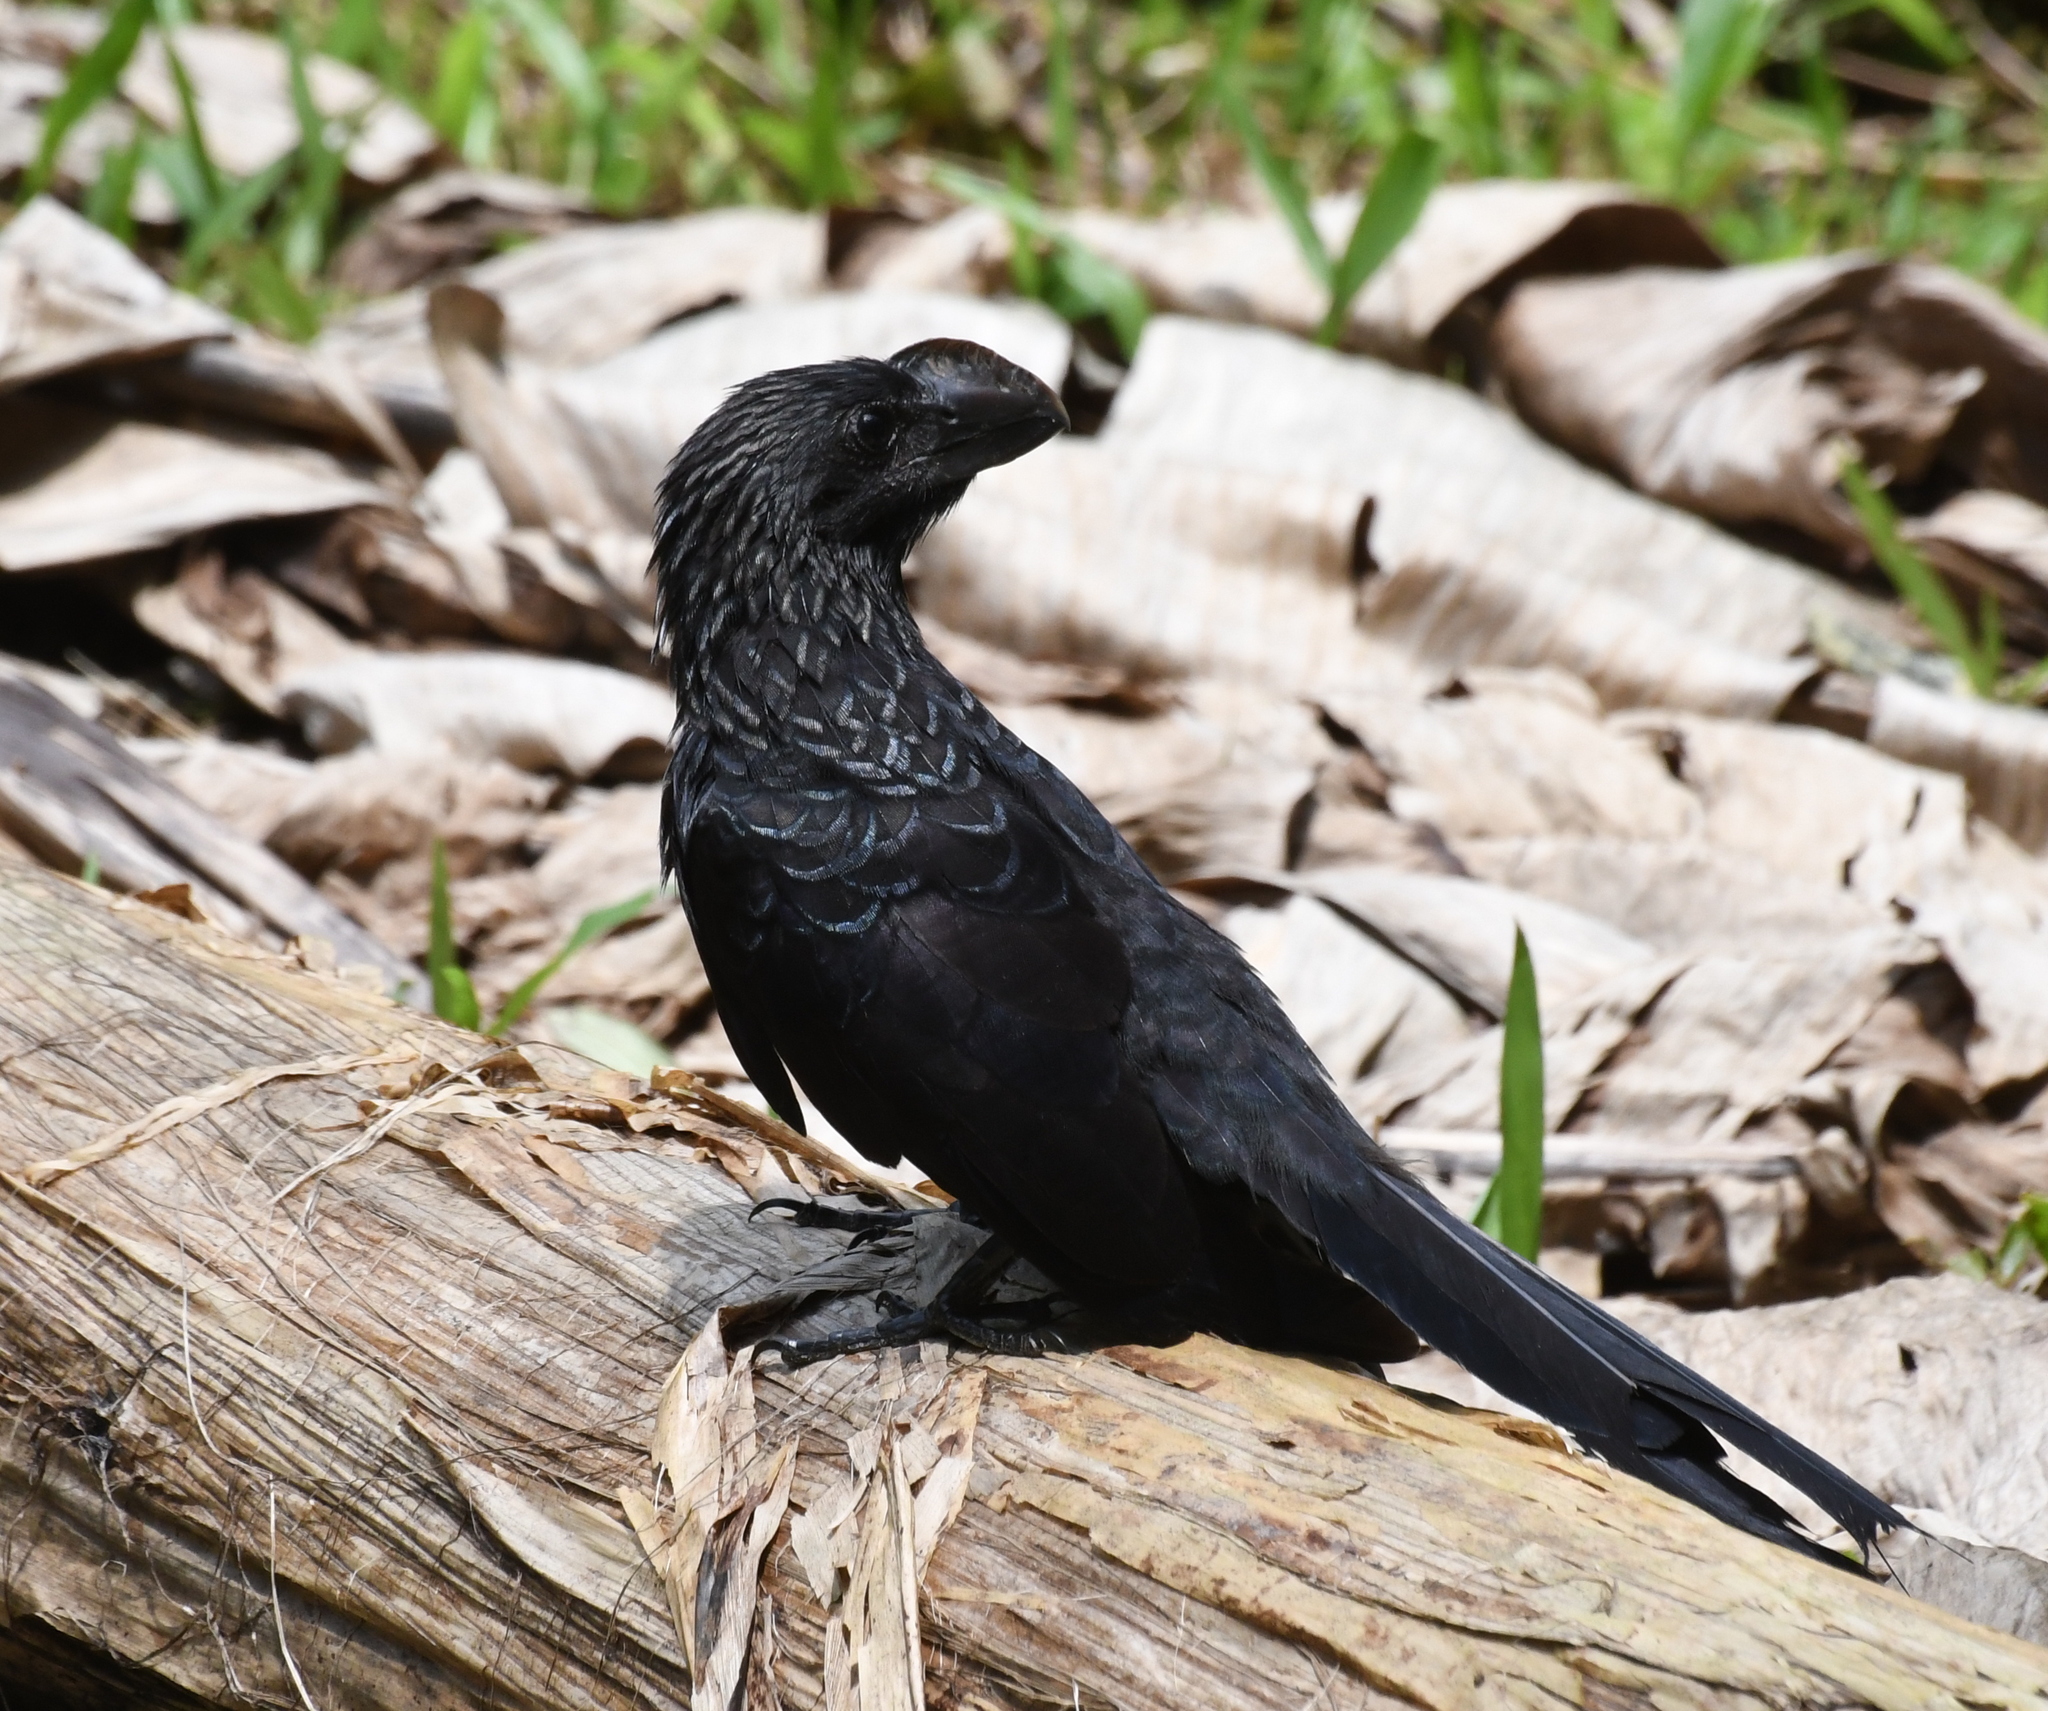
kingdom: Animalia
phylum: Chordata
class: Aves
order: Cuculiformes
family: Cuculidae
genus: Crotophaga
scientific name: Crotophaga ani
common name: Smooth-billed ani
